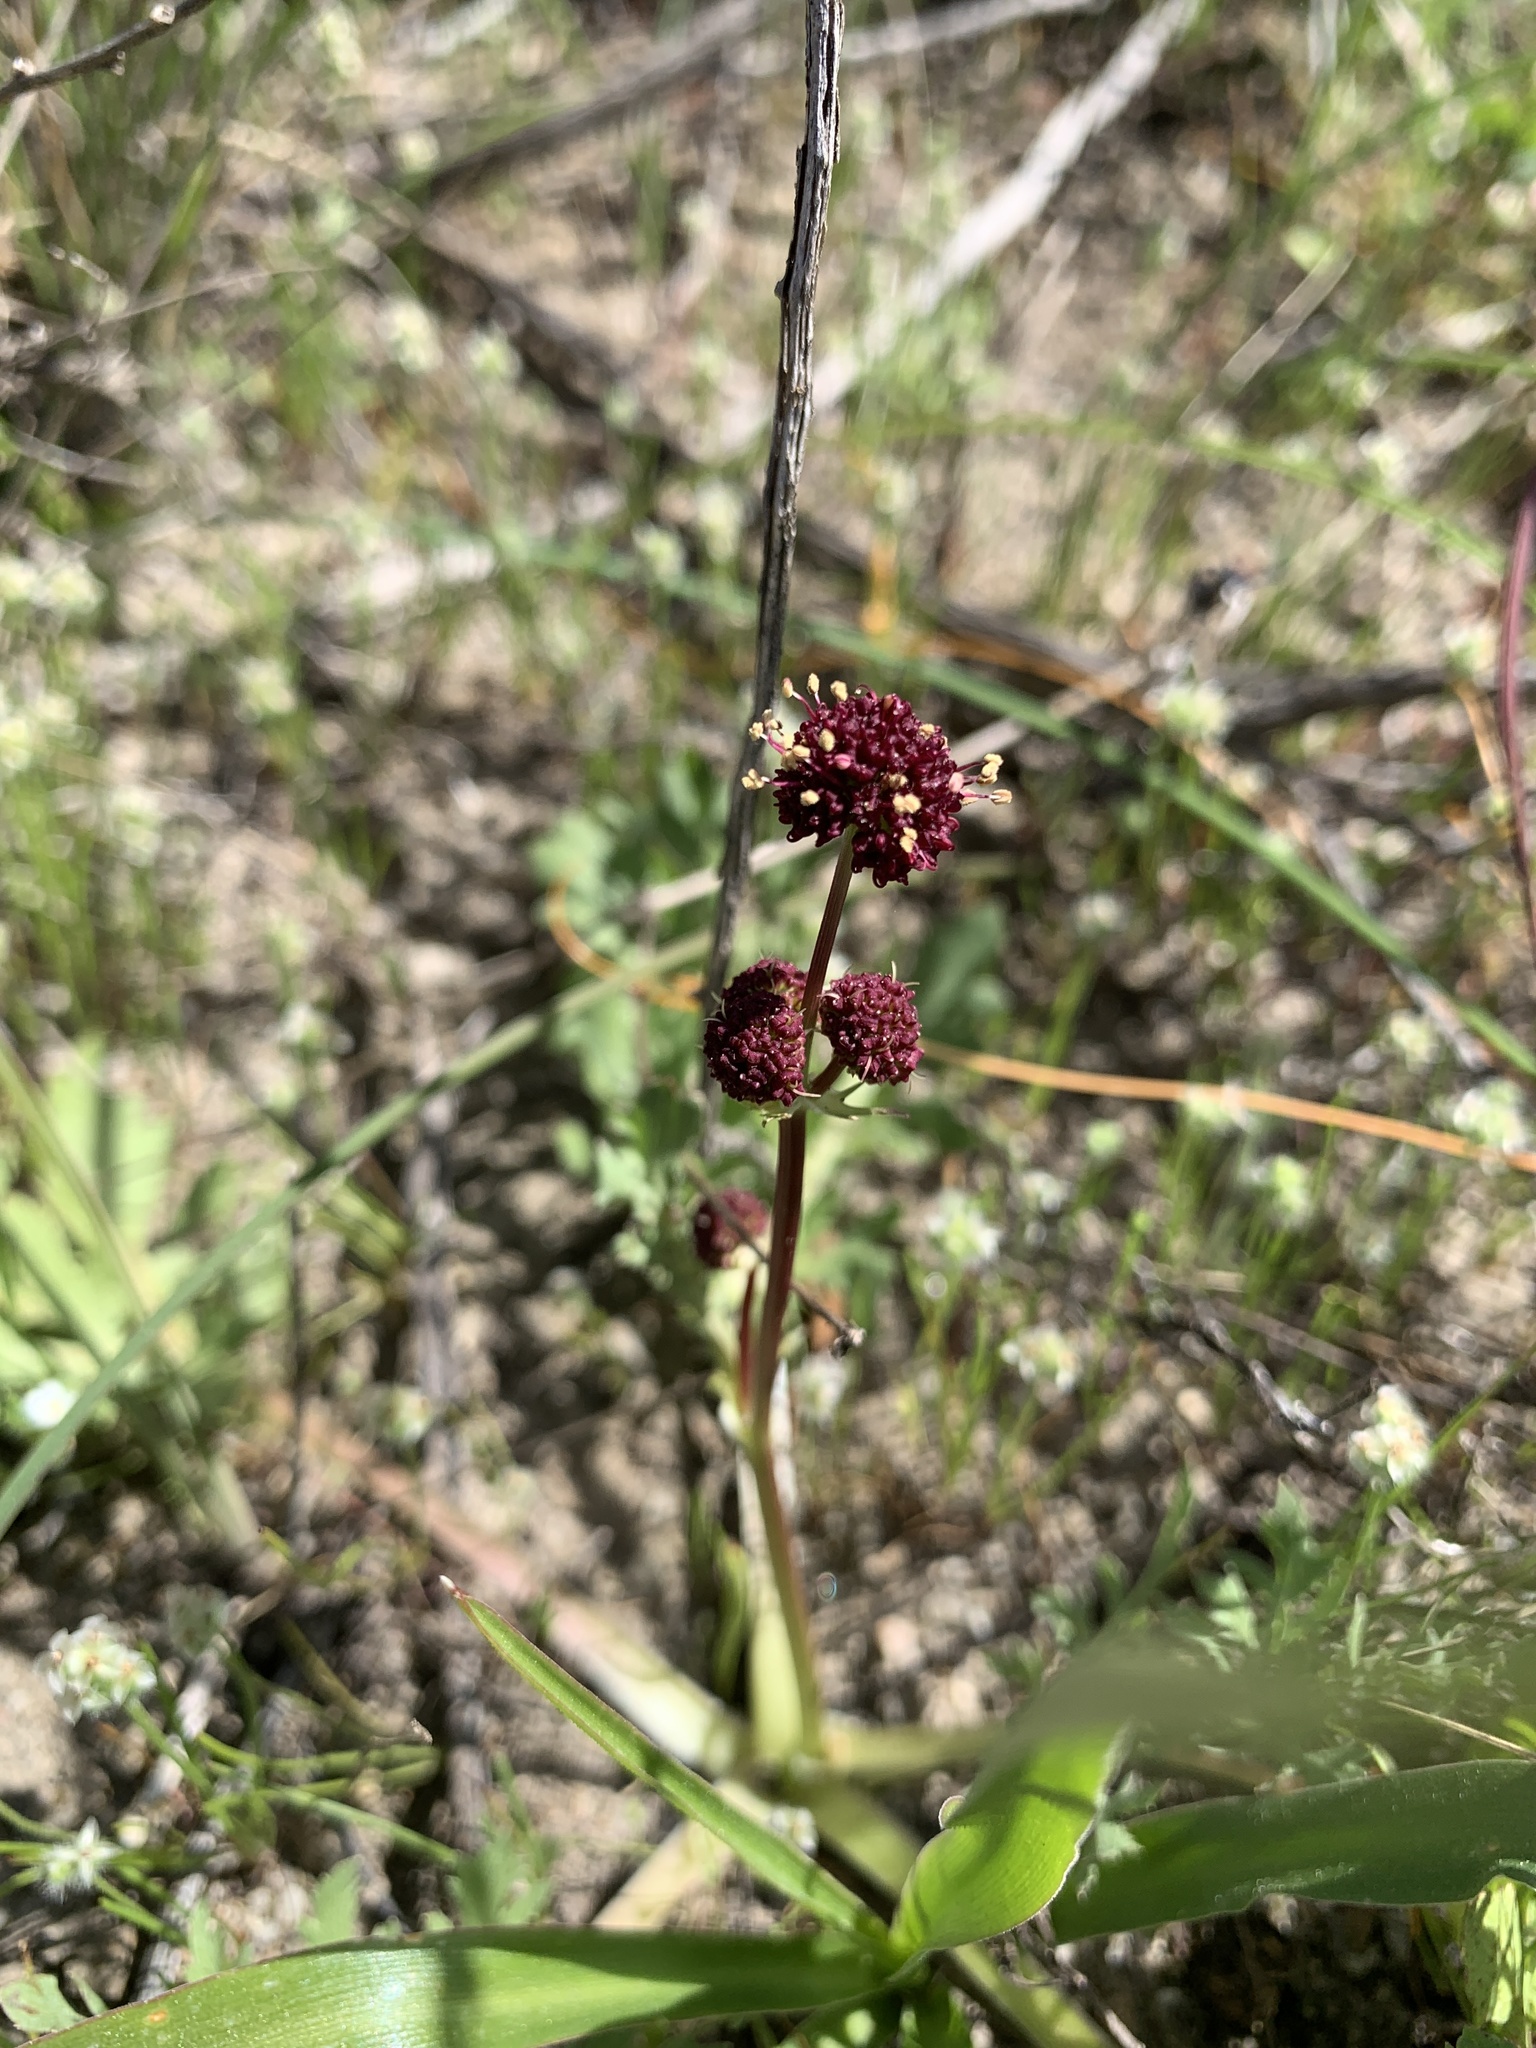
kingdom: Plantae
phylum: Tracheophyta
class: Magnoliopsida
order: Apiales
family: Apiaceae
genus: Sanicula
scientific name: Sanicula bipinnatifida
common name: Shoe-buttons
